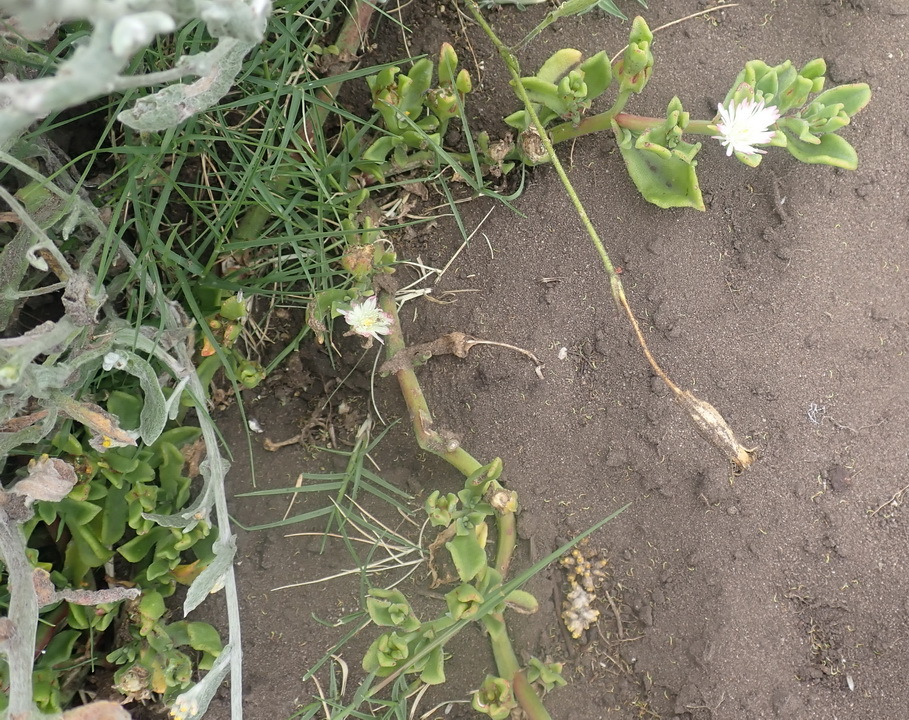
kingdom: Plantae
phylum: Tracheophyta
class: Magnoliopsida
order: Caryophyllales
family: Aizoaceae
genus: Mesembryanthemum
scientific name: Mesembryanthemum aitonis
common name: Angled iceplant
